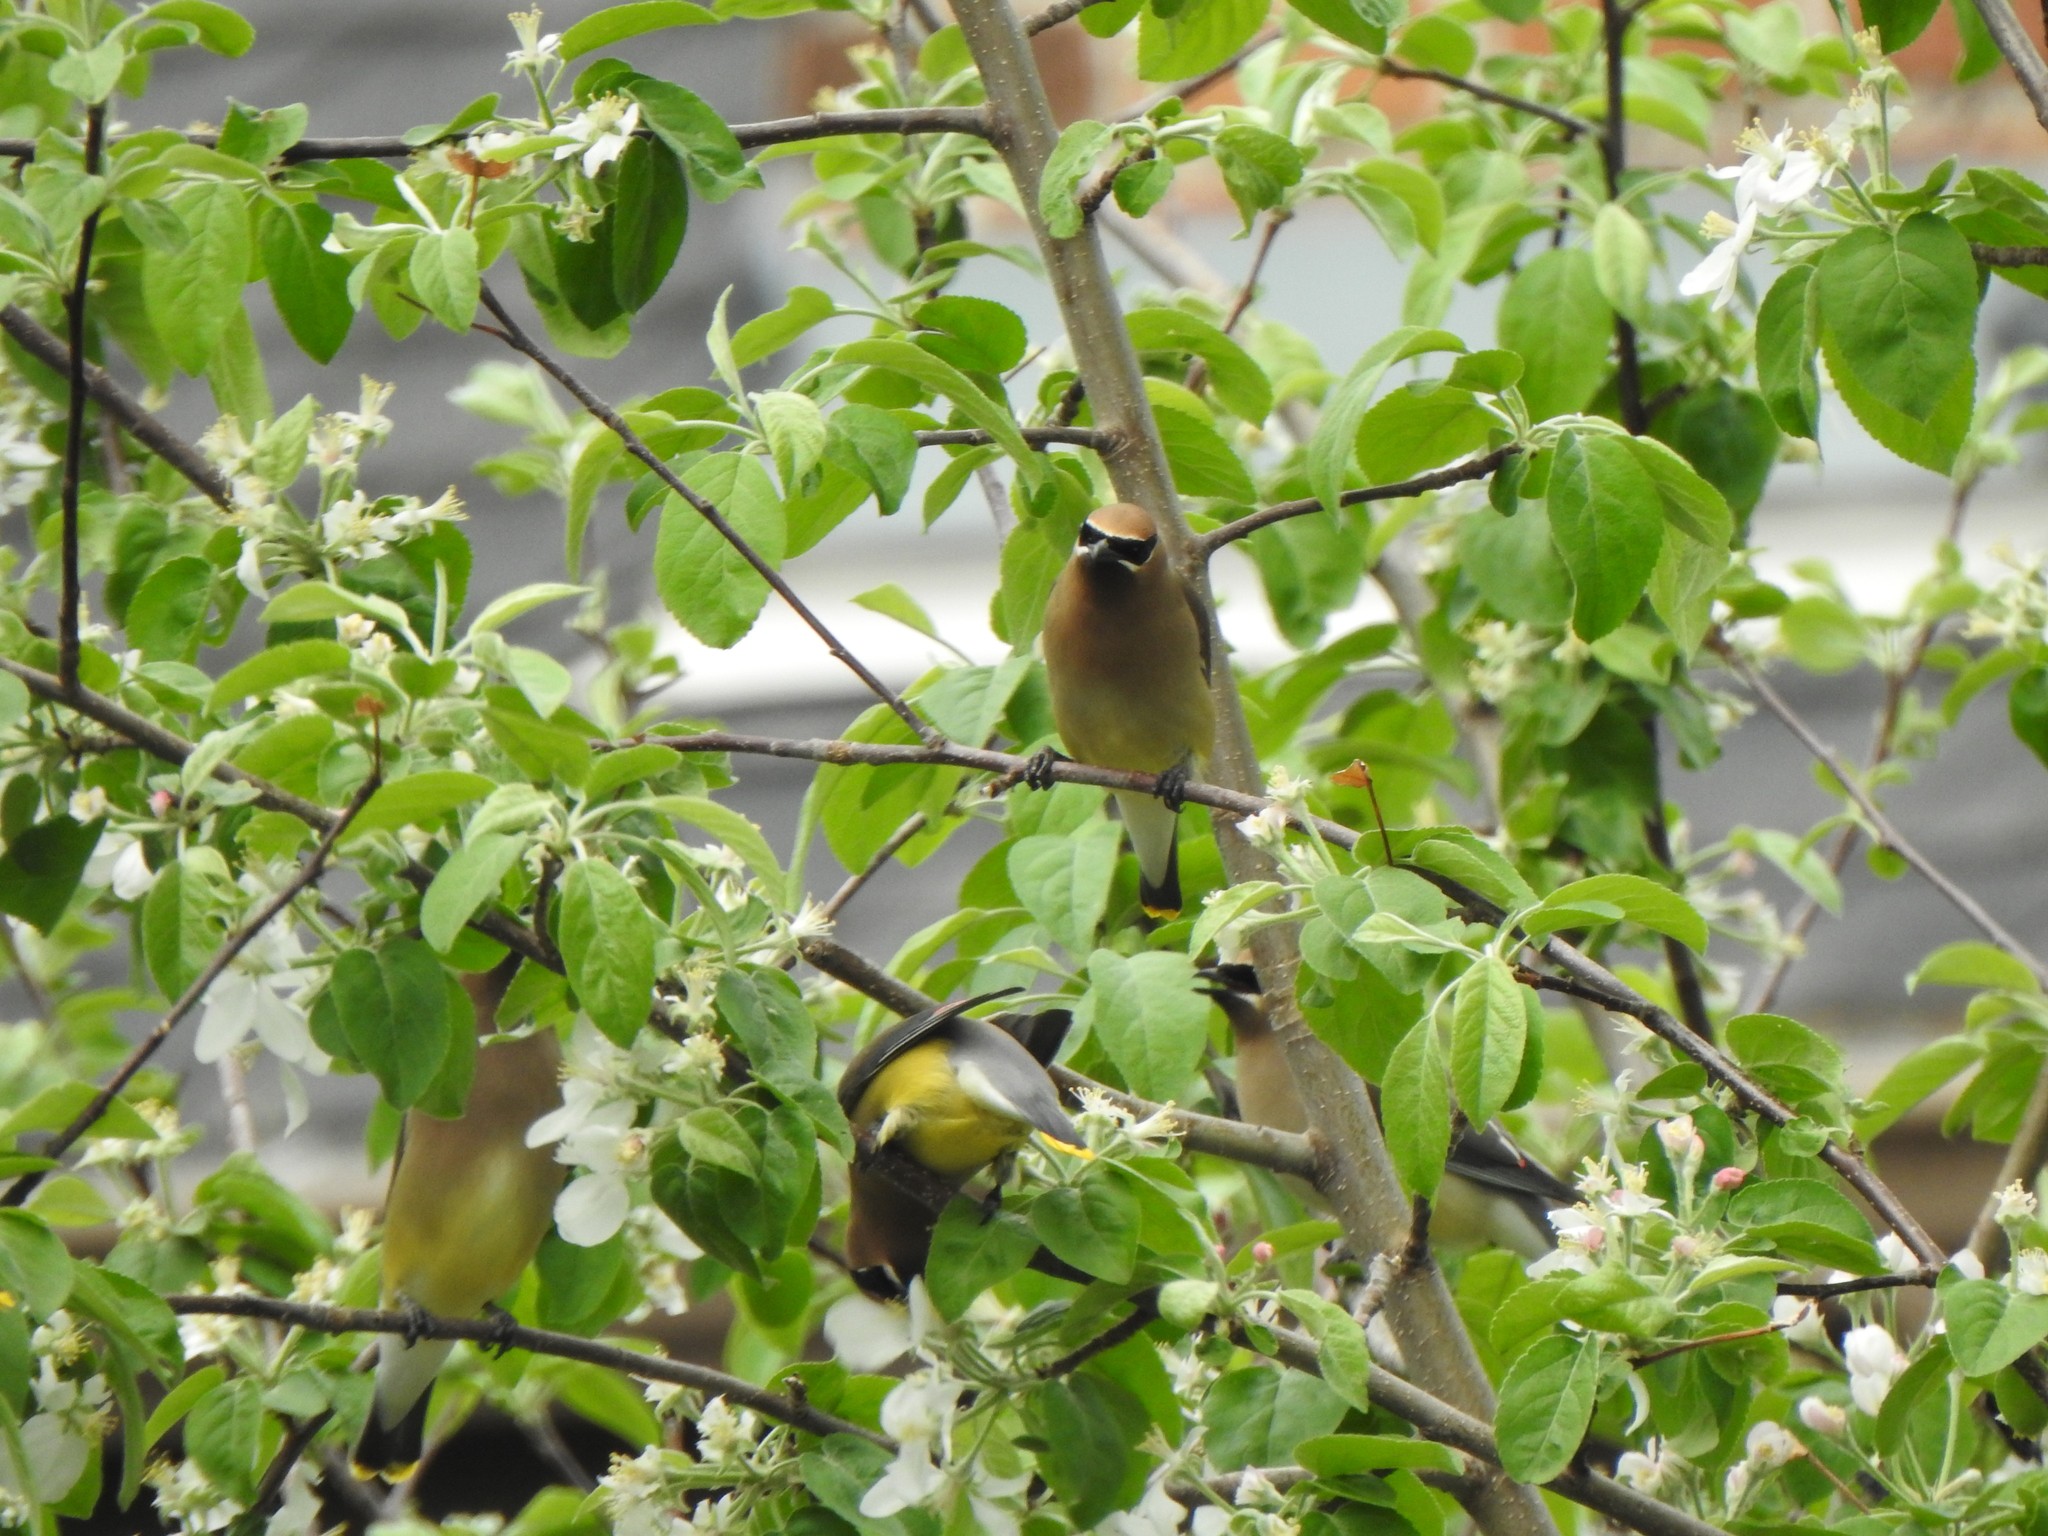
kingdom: Animalia
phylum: Chordata
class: Aves
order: Passeriformes
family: Bombycillidae
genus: Bombycilla
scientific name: Bombycilla cedrorum
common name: Cedar waxwing
